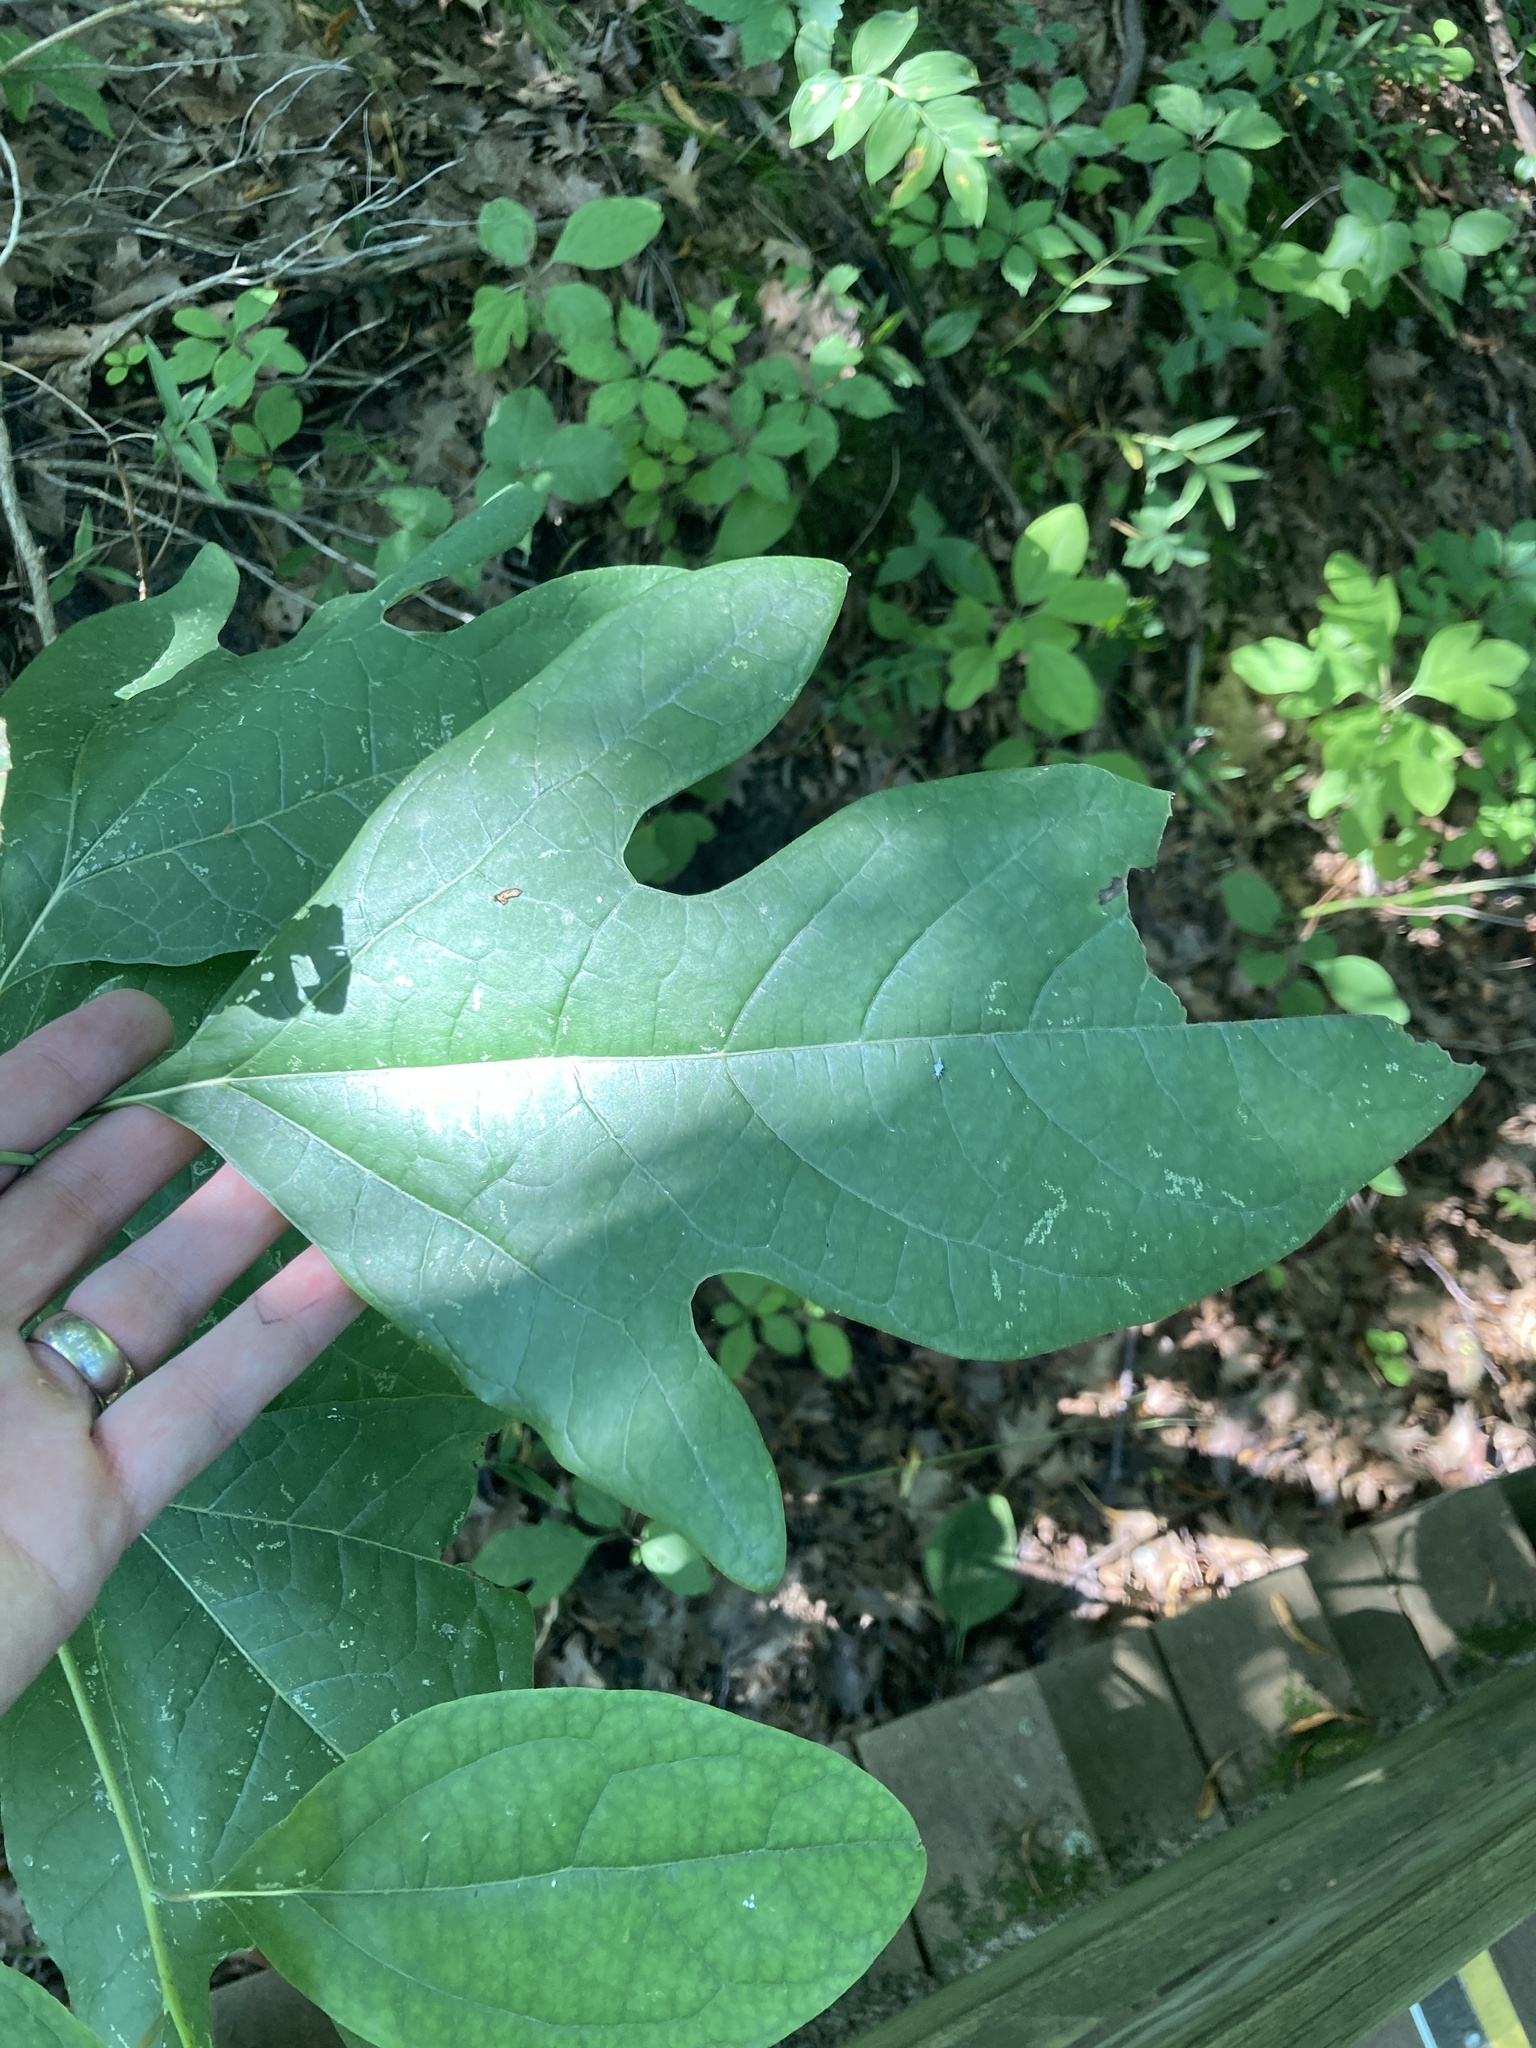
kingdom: Plantae
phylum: Tracheophyta
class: Magnoliopsida
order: Laurales
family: Lauraceae
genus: Sassafras
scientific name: Sassafras albidum
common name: Sassafras
